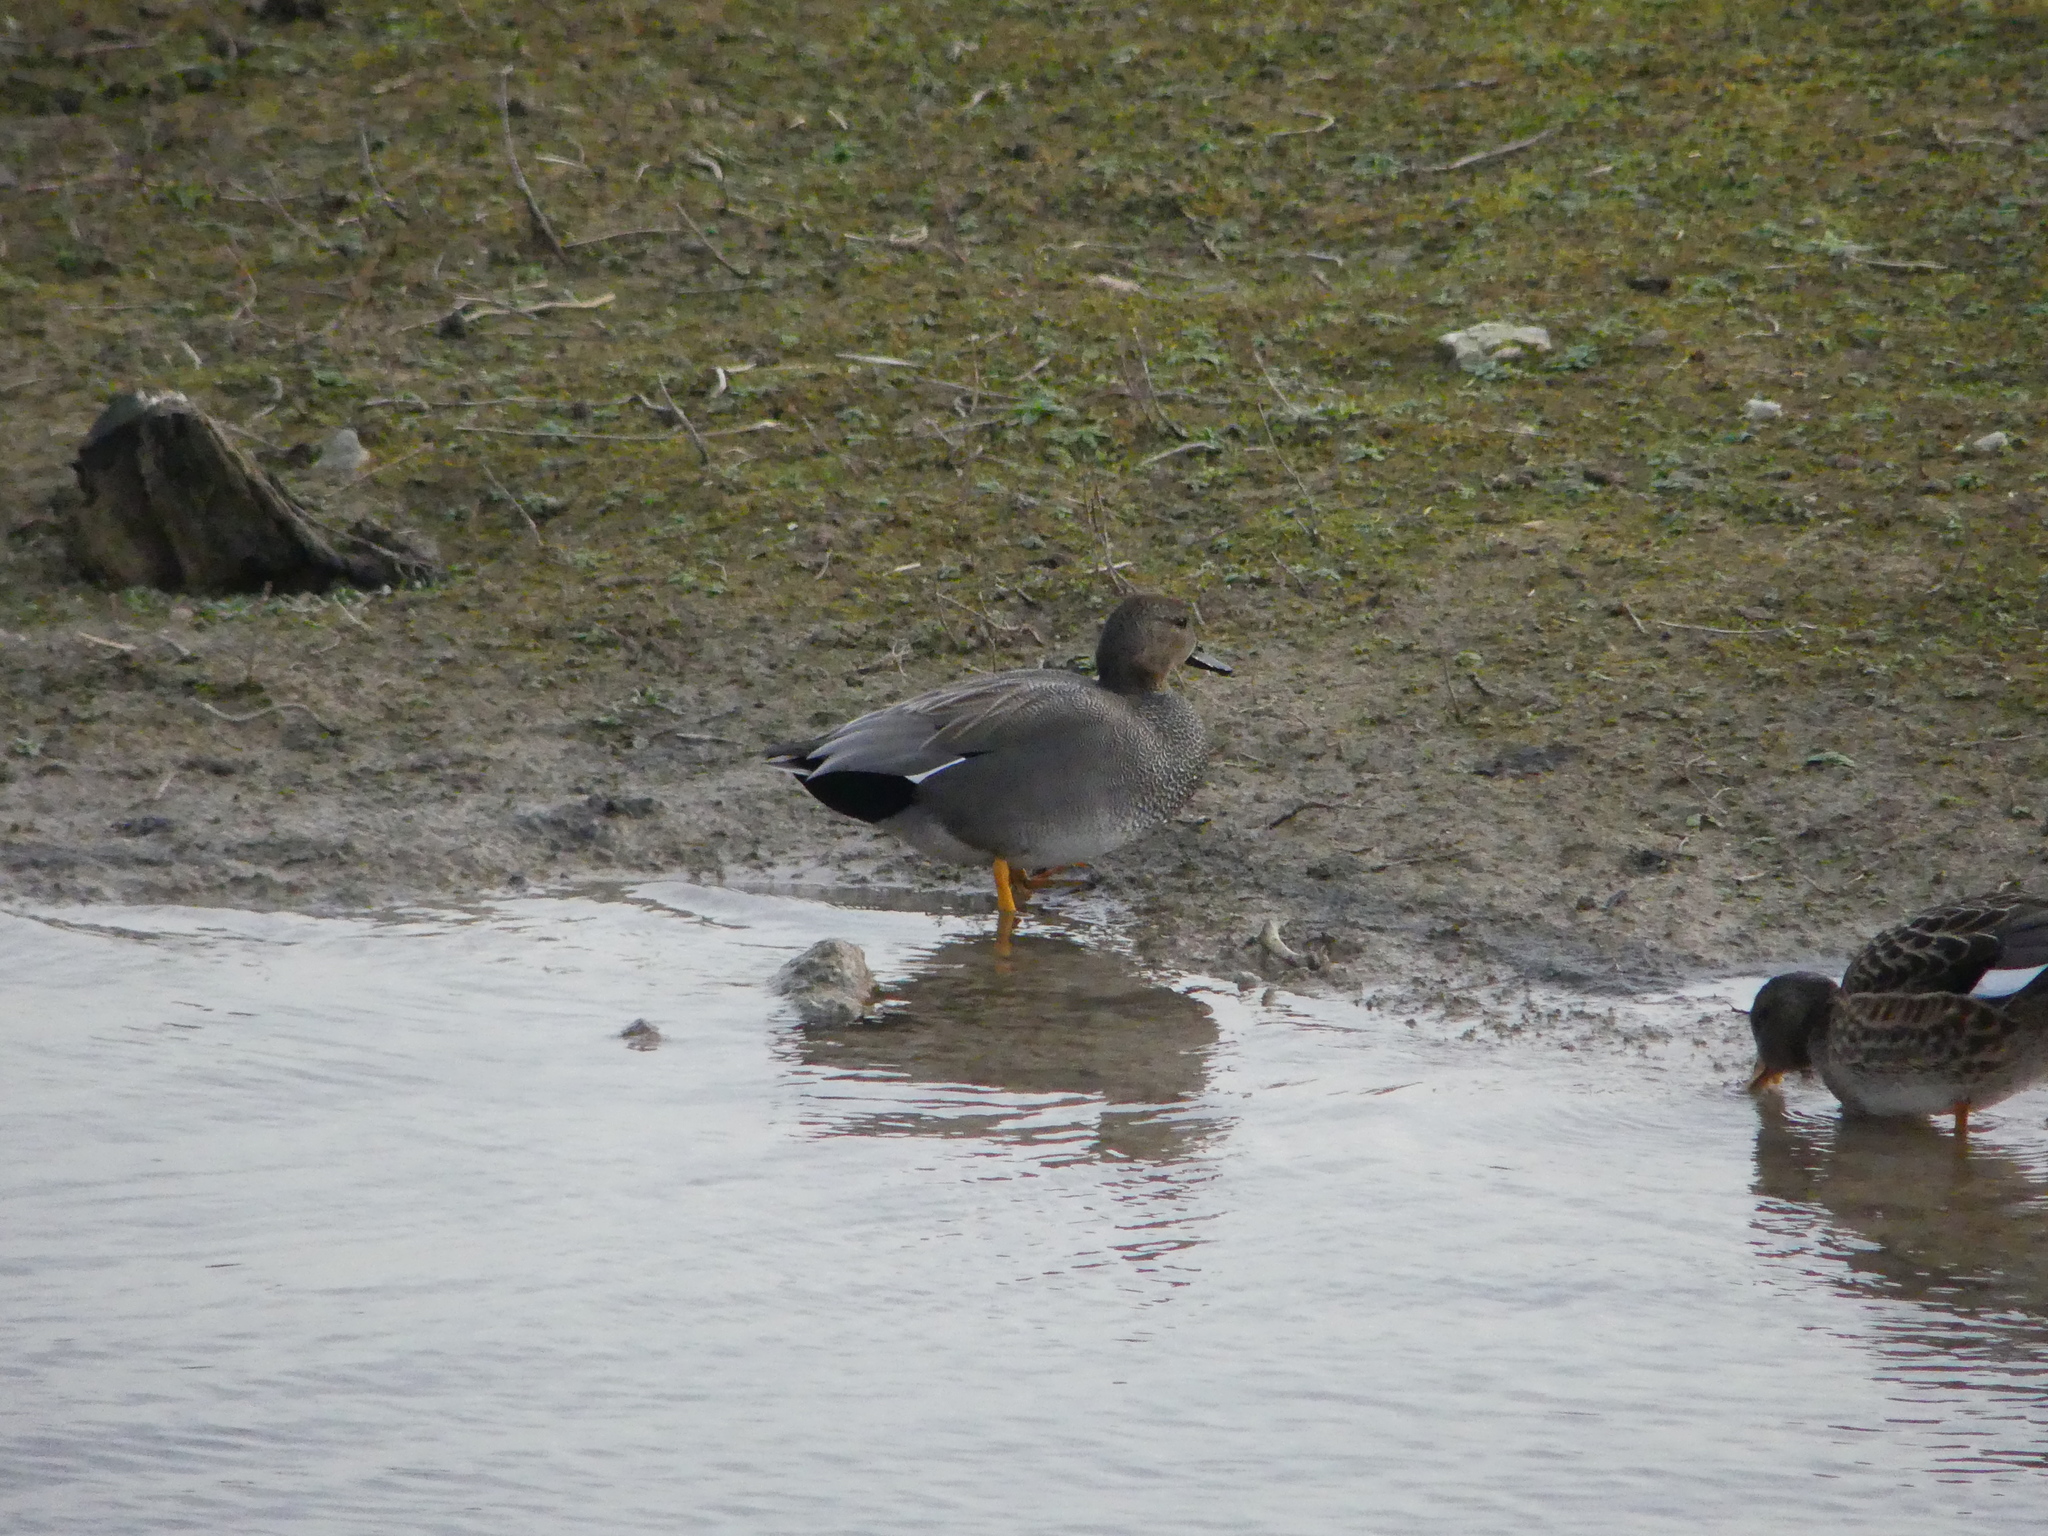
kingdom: Animalia
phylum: Chordata
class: Aves
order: Anseriformes
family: Anatidae
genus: Mareca
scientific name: Mareca strepera
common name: Gadwall
